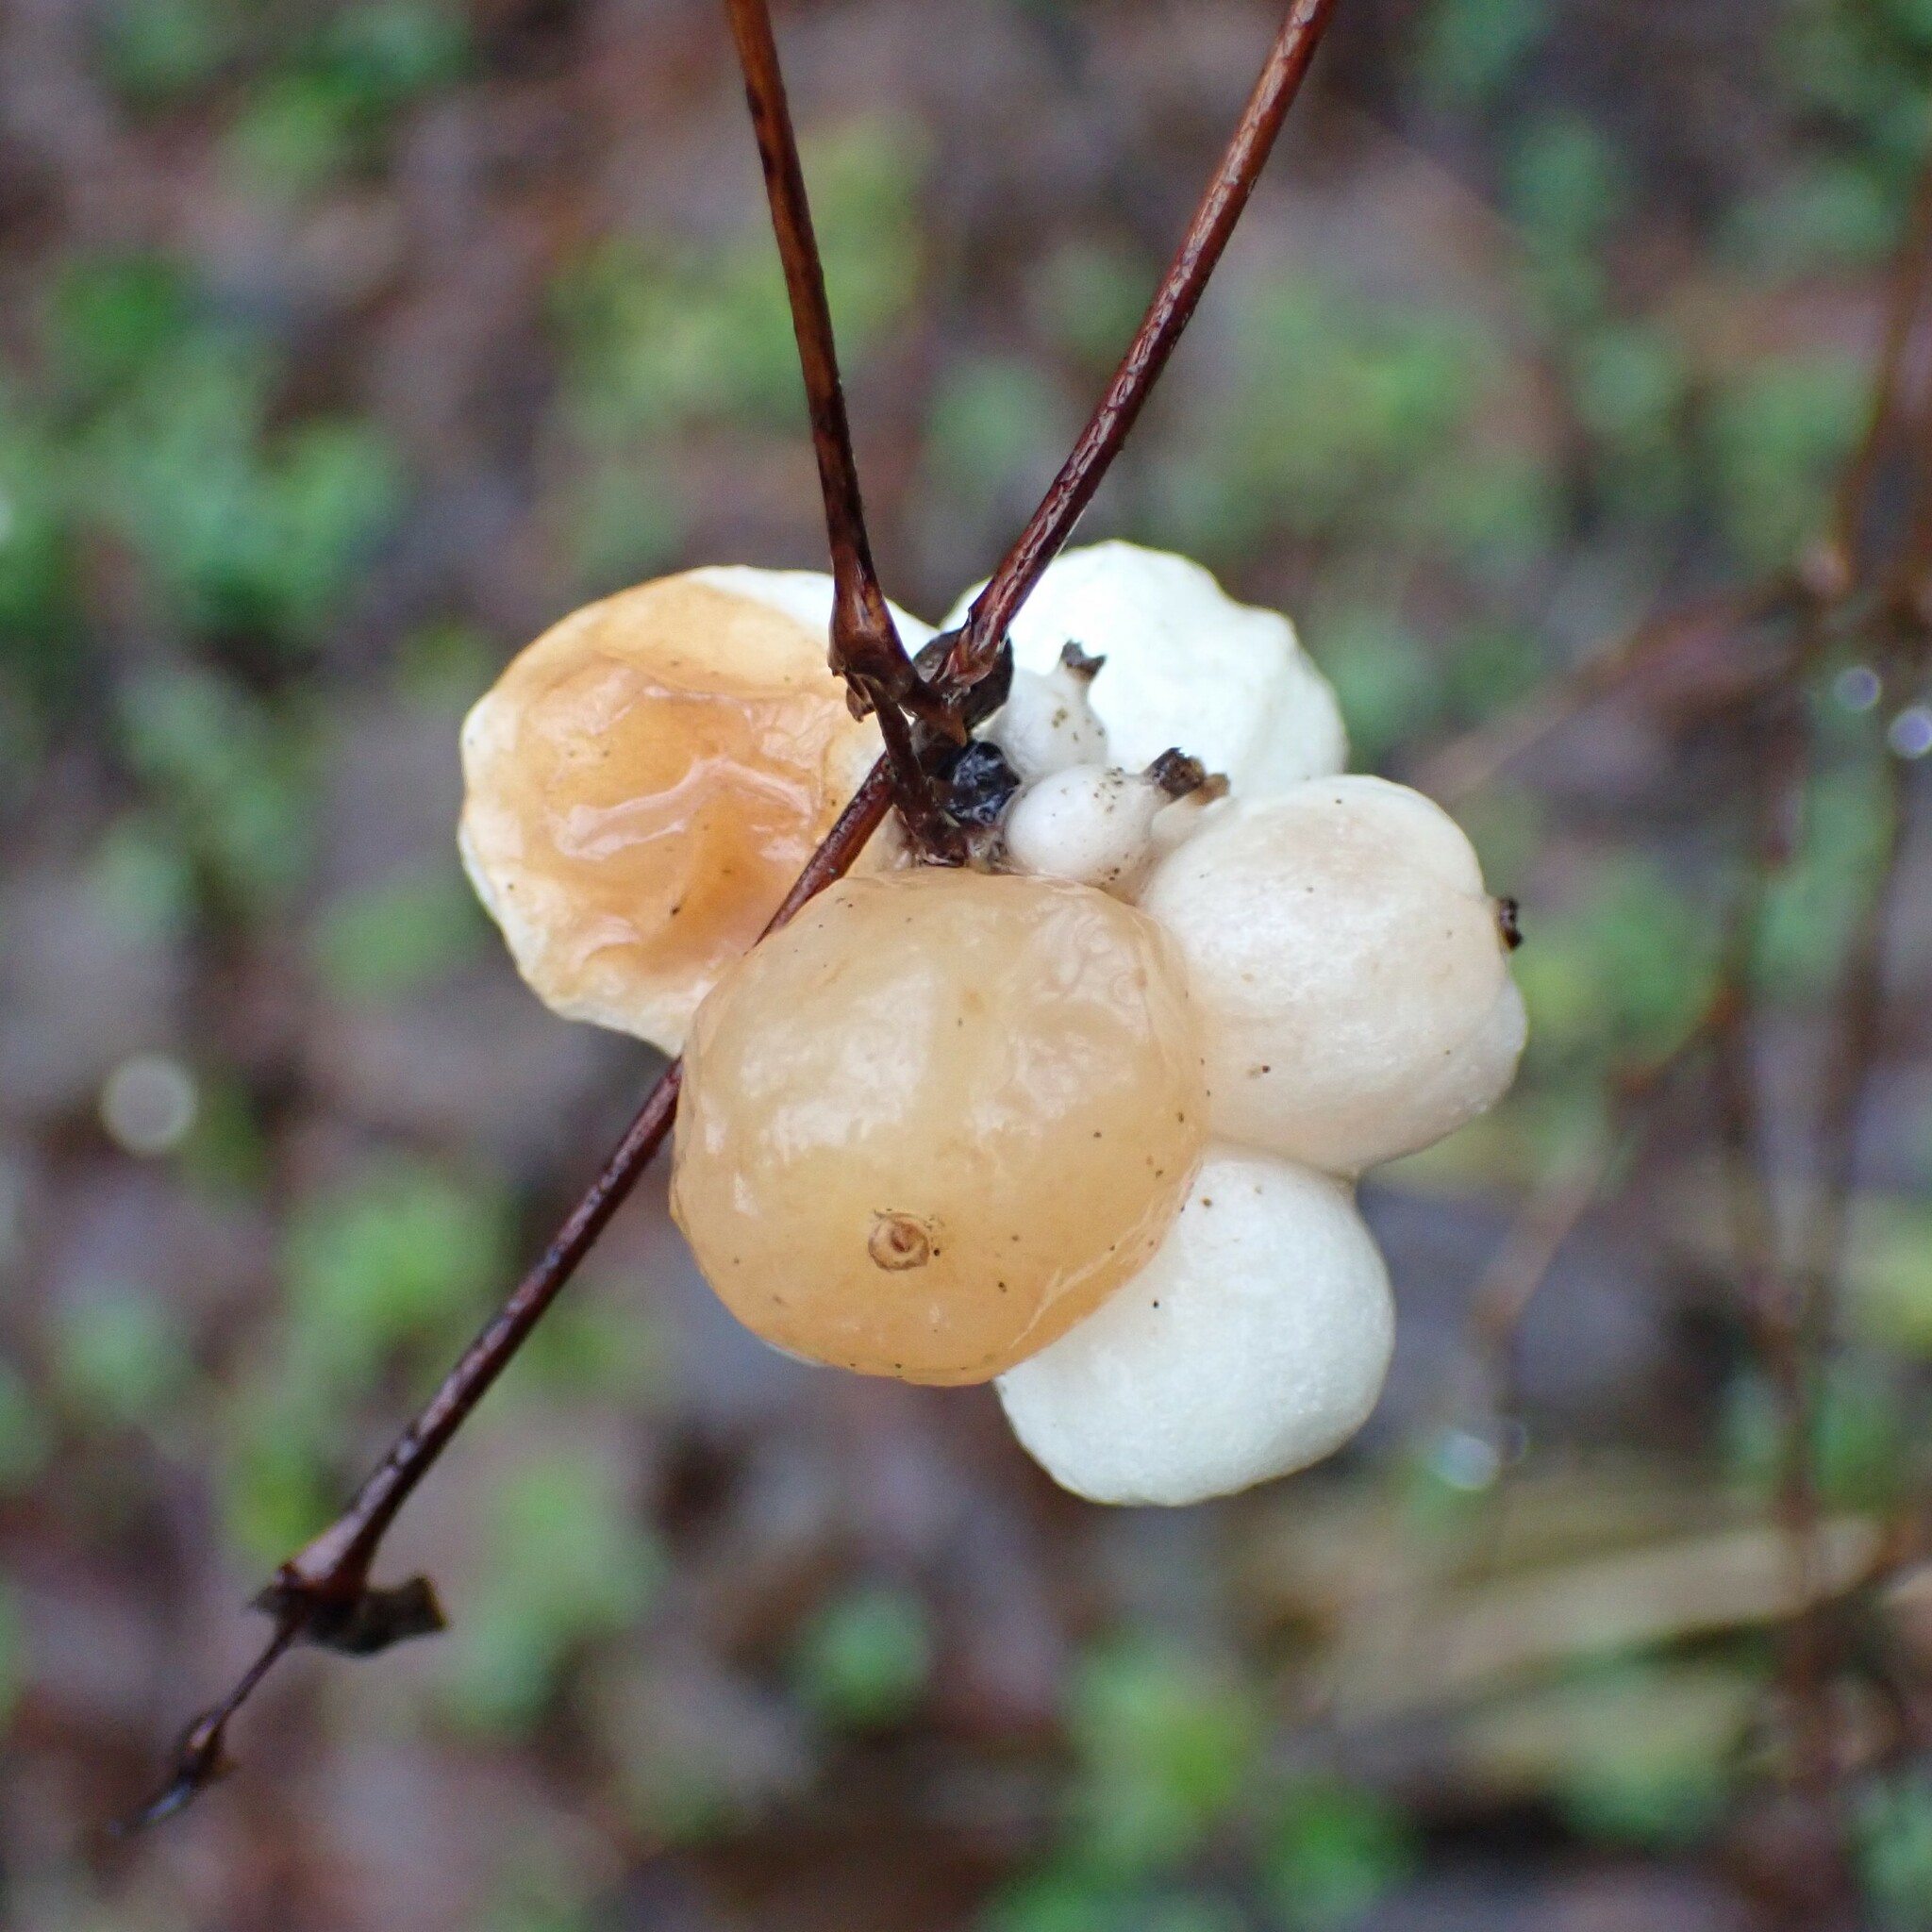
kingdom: Plantae
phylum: Tracheophyta
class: Magnoliopsida
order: Dipsacales
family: Caprifoliaceae
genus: Symphoricarpos
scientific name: Symphoricarpos albus
